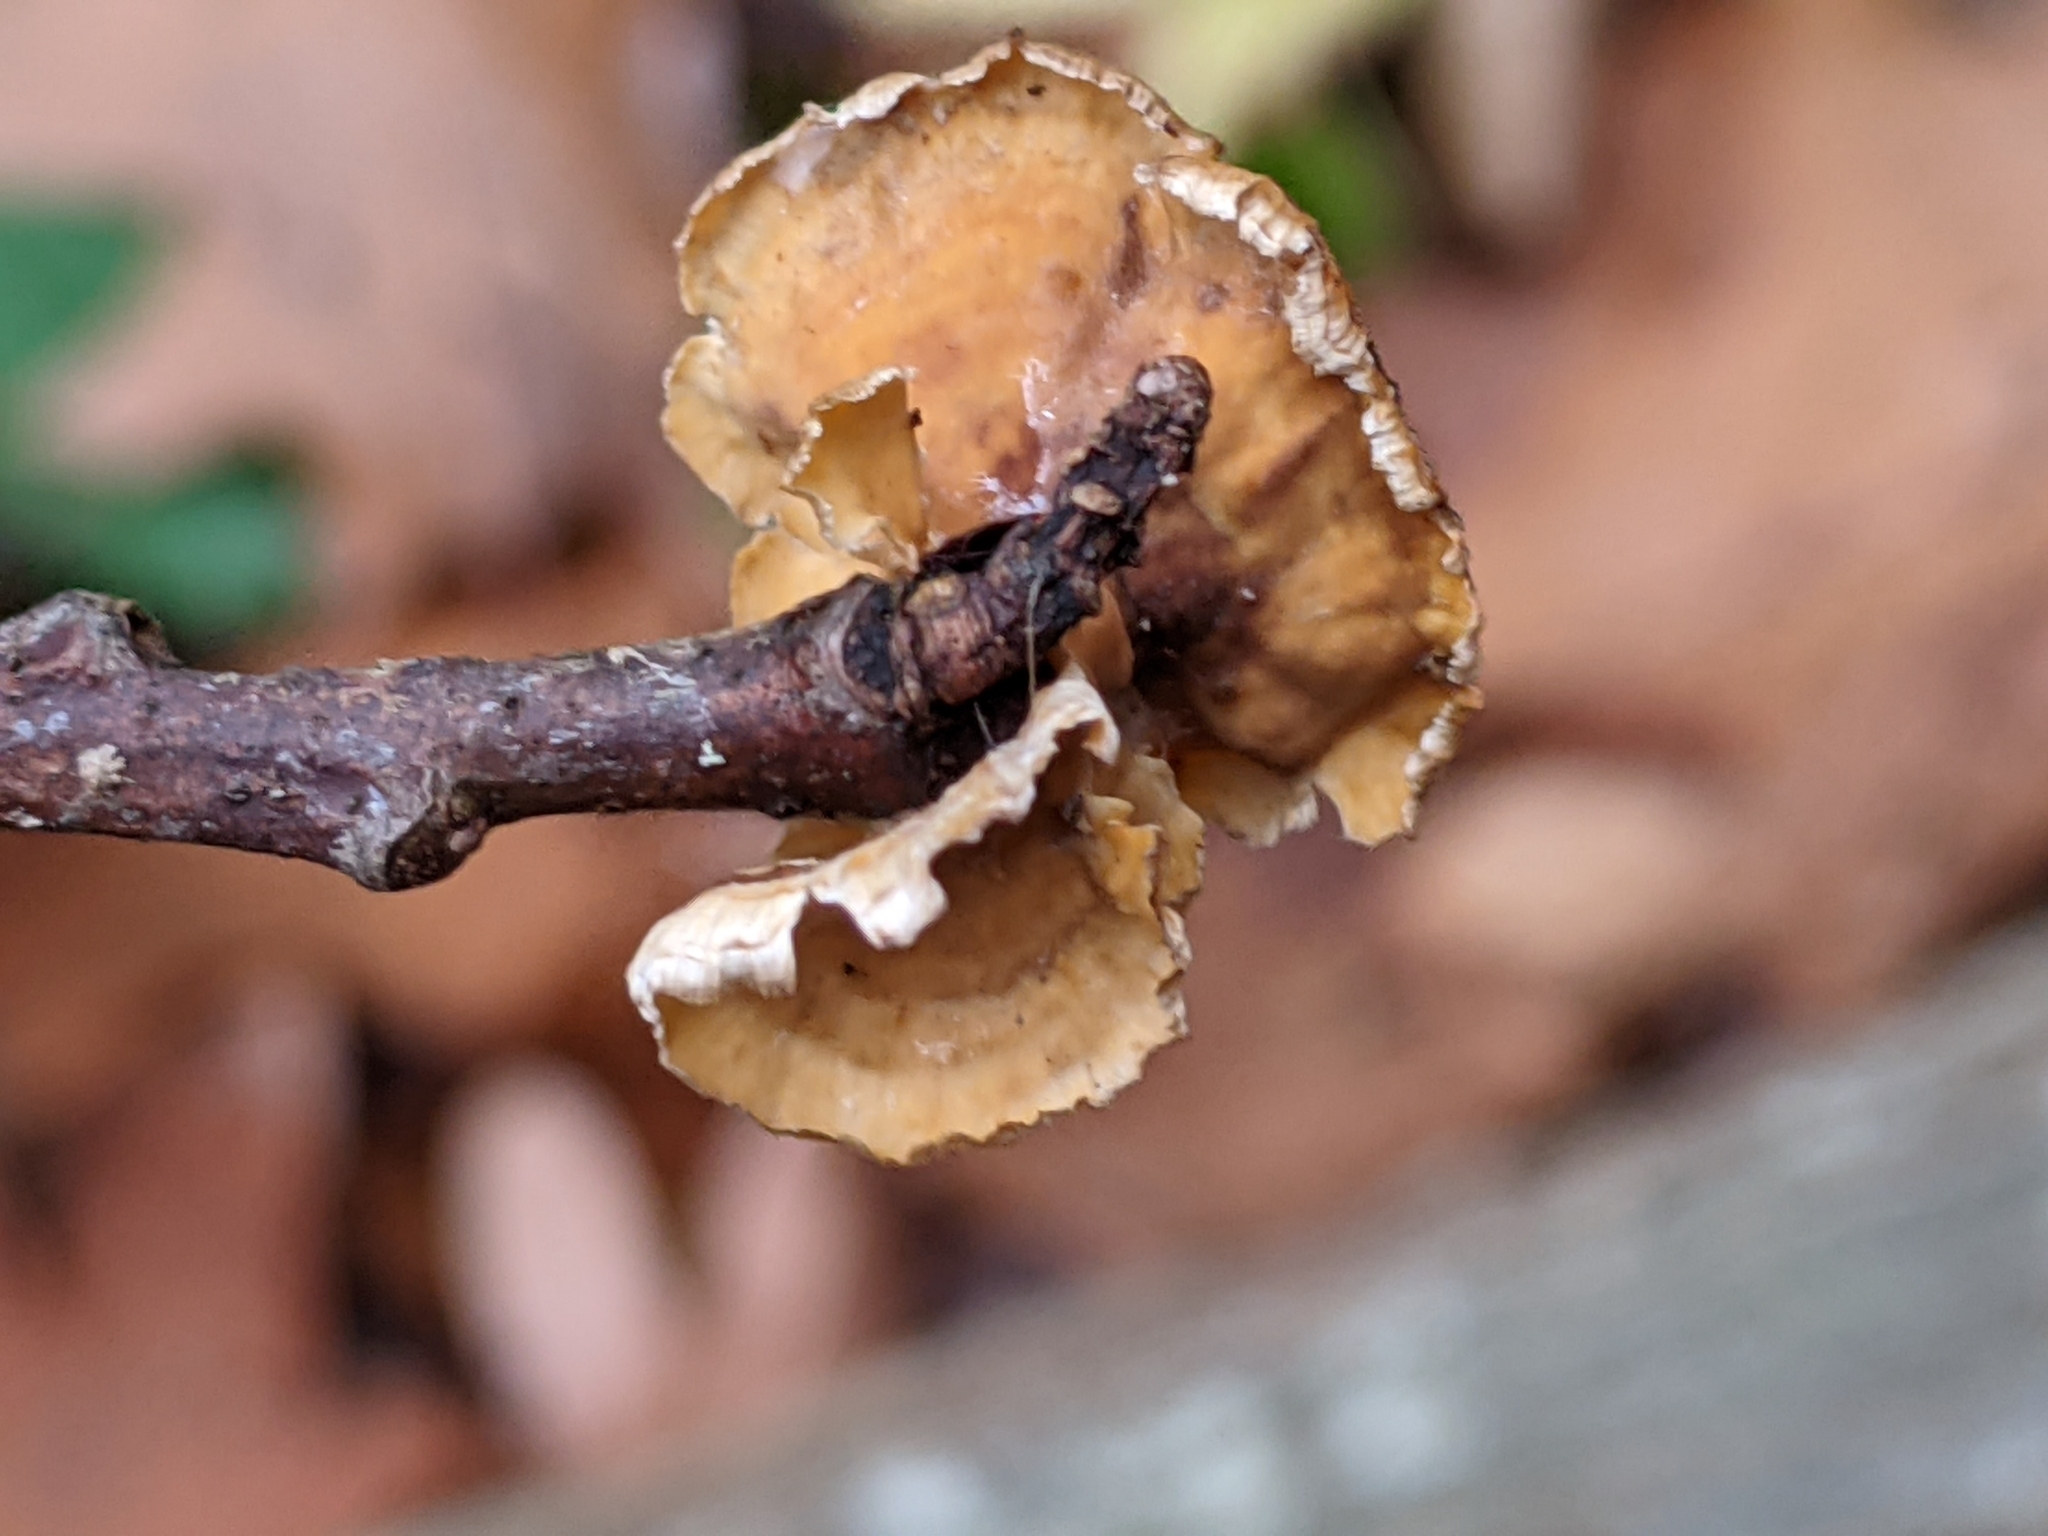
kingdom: Fungi
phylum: Basidiomycota
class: Agaricomycetes
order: Russulales
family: Stereaceae
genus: Stereum
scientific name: Stereum complicatum
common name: Crowded parchment
